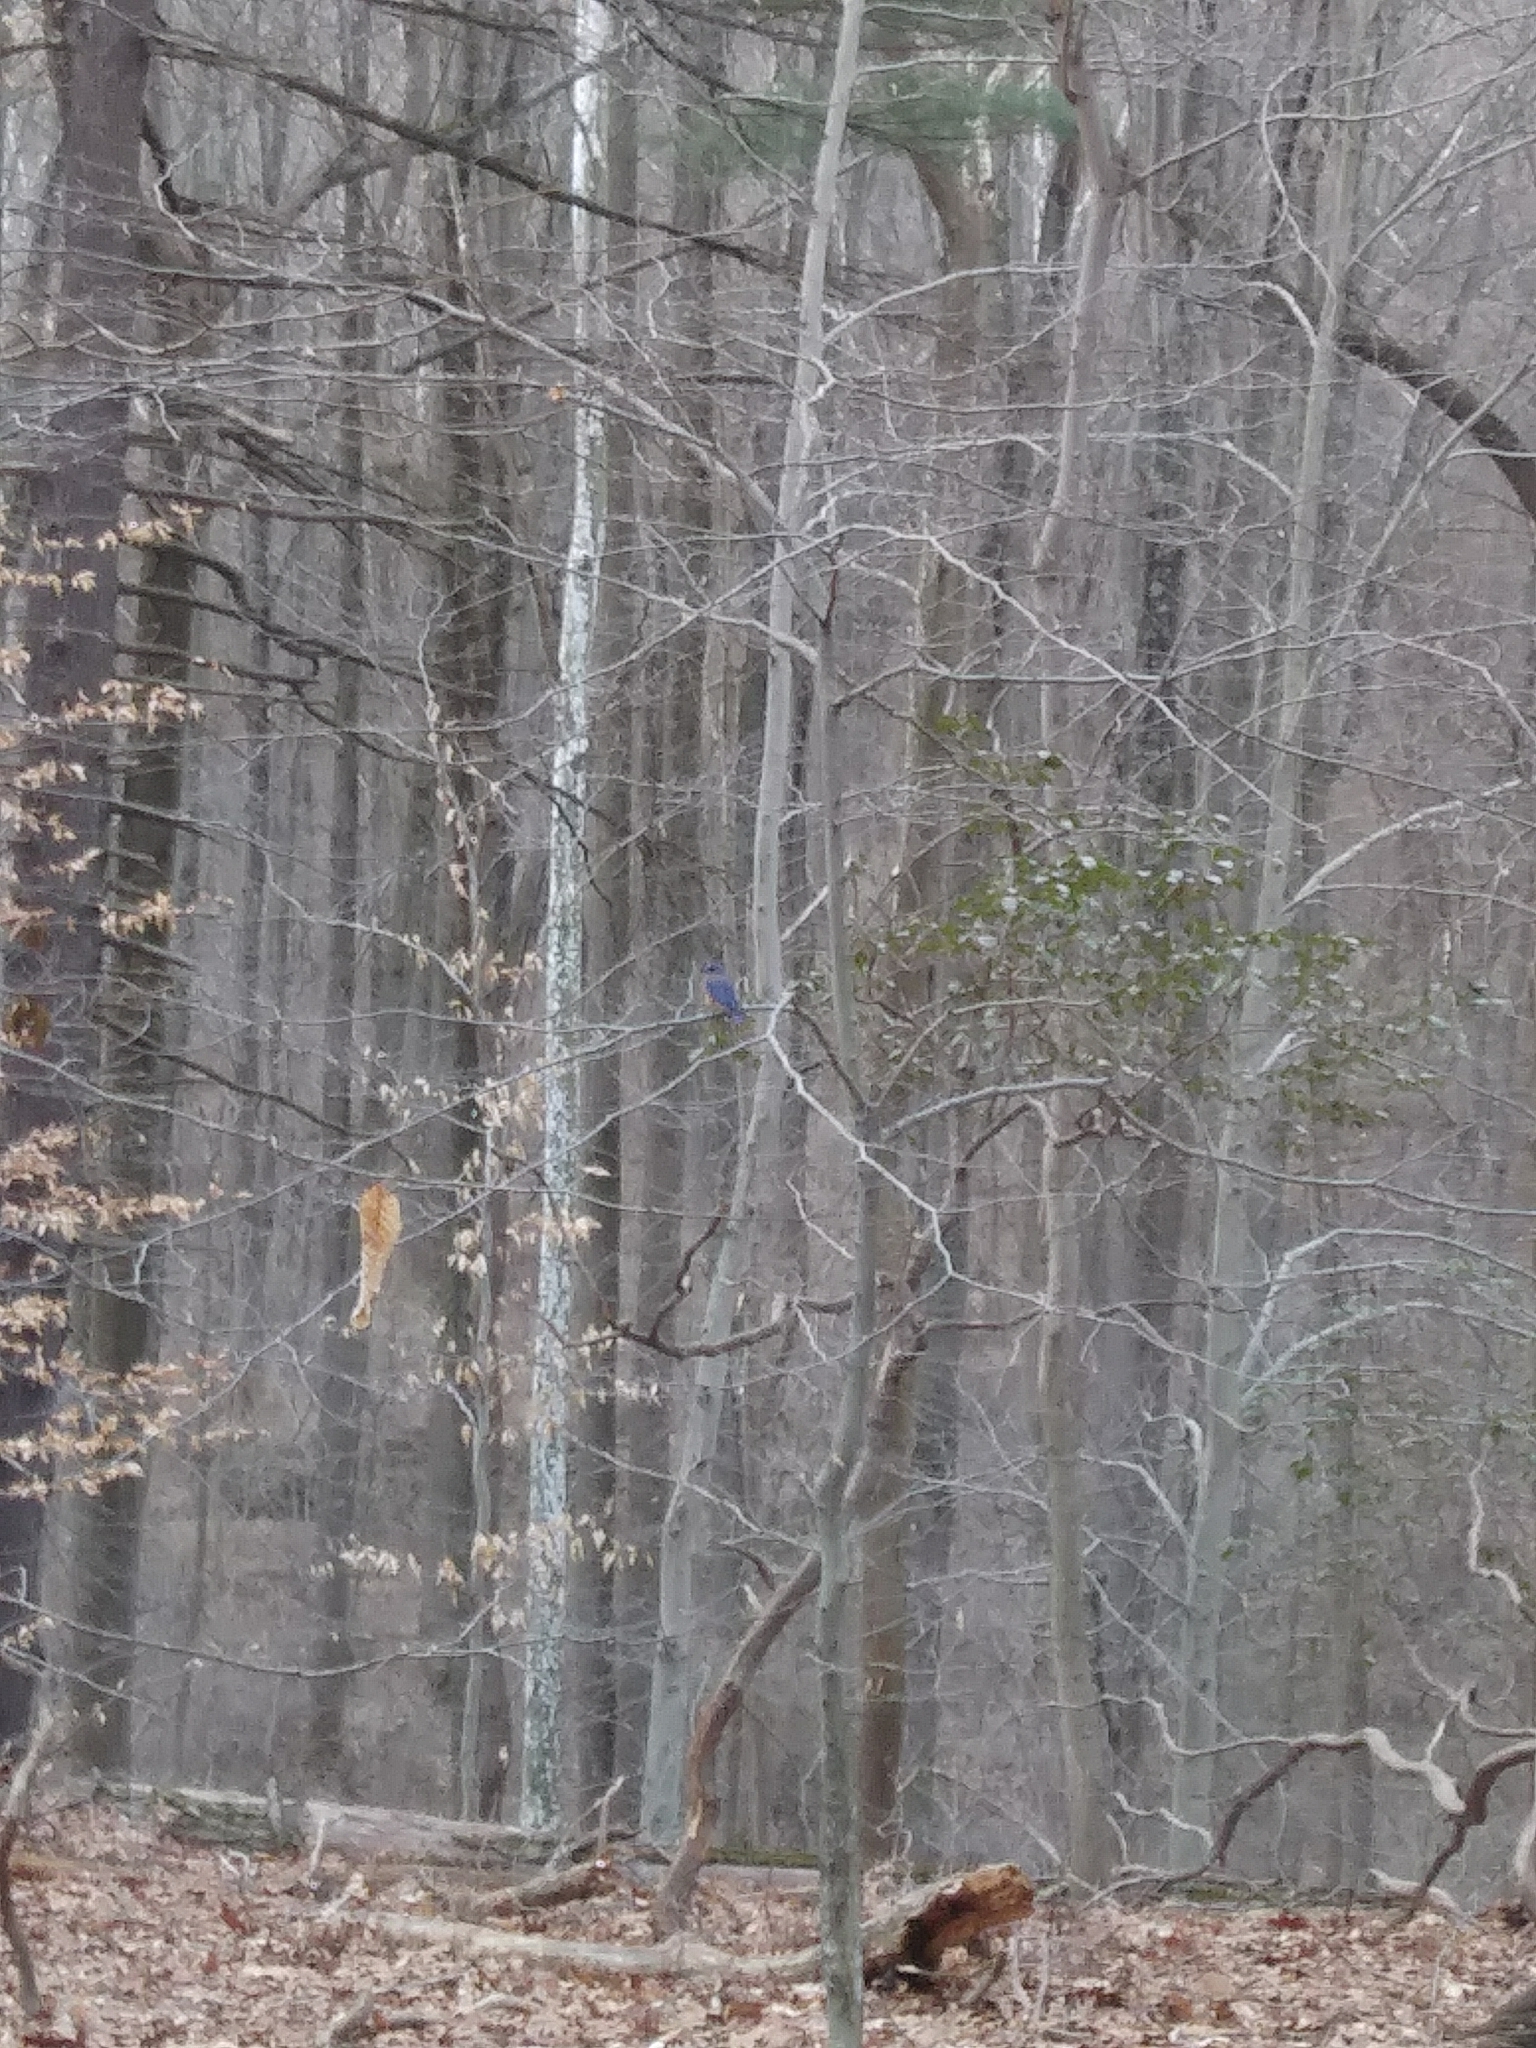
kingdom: Animalia
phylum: Chordata
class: Aves
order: Passeriformes
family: Turdidae
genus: Sialia
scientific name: Sialia sialis
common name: Eastern bluebird
